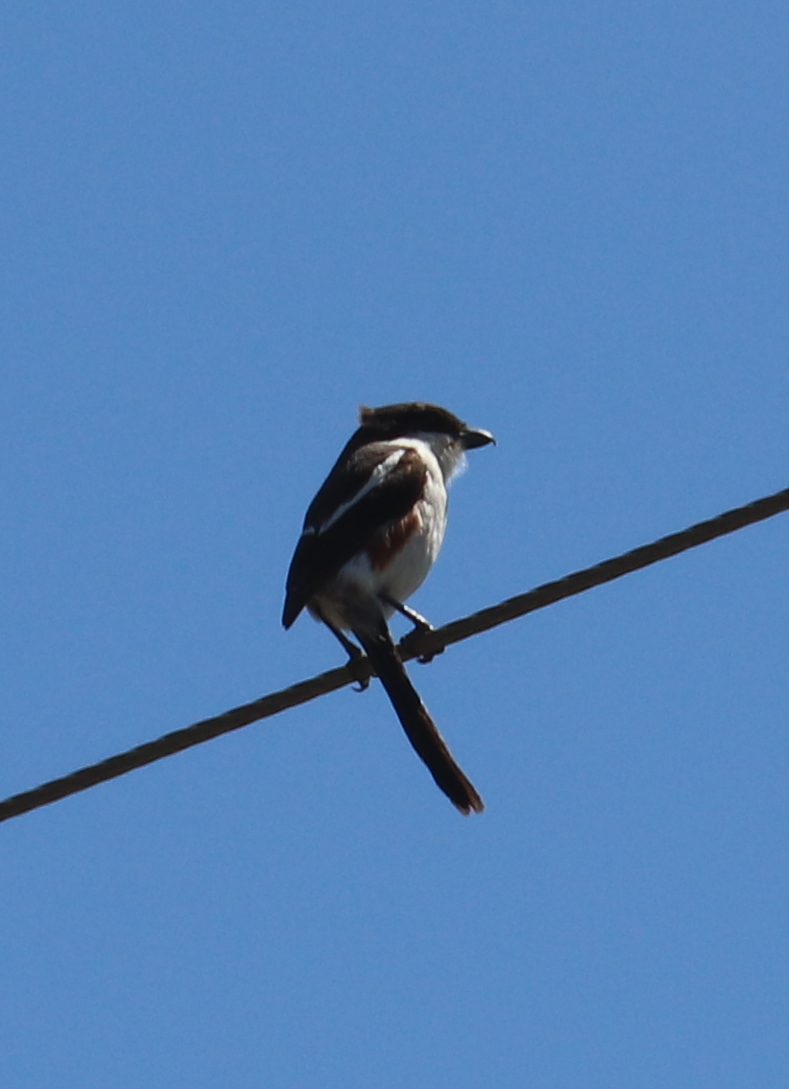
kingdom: Animalia
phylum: Chordata
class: Aves
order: Passeriformes
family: Laniidae
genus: Lanius
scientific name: Lanius collaris
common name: Southern fiscal
